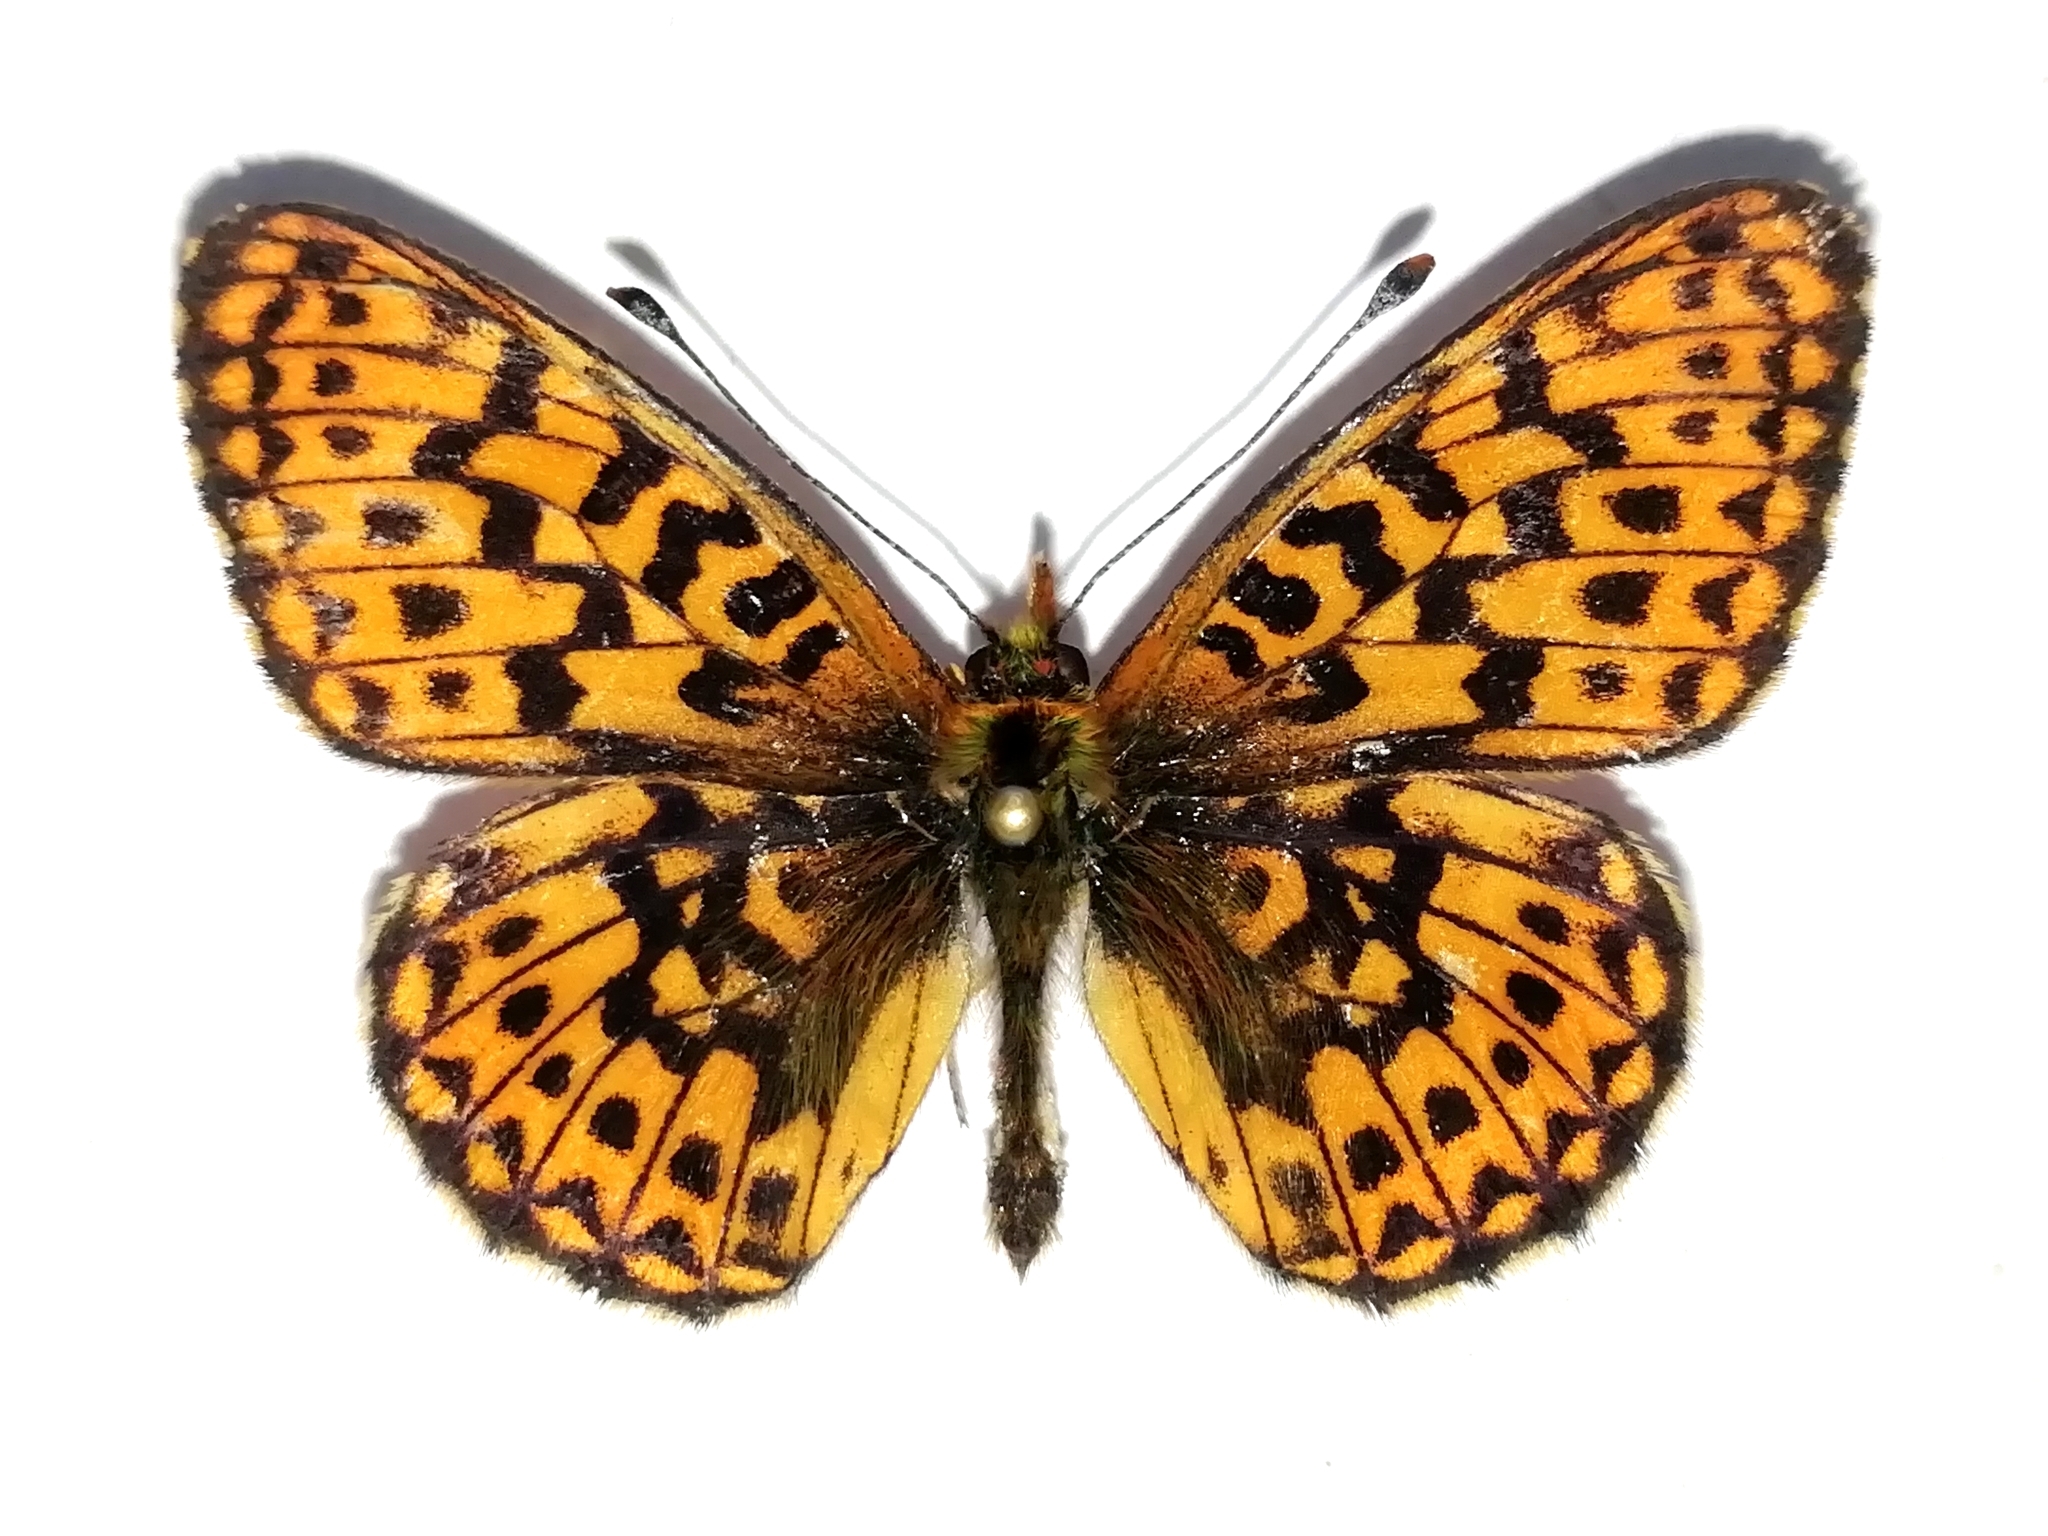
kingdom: Animalia
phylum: Arthropoda
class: Insecta
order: Lepidoptera
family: Nymphalidae
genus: Clossiana
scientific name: Clossiana euphrosyne
